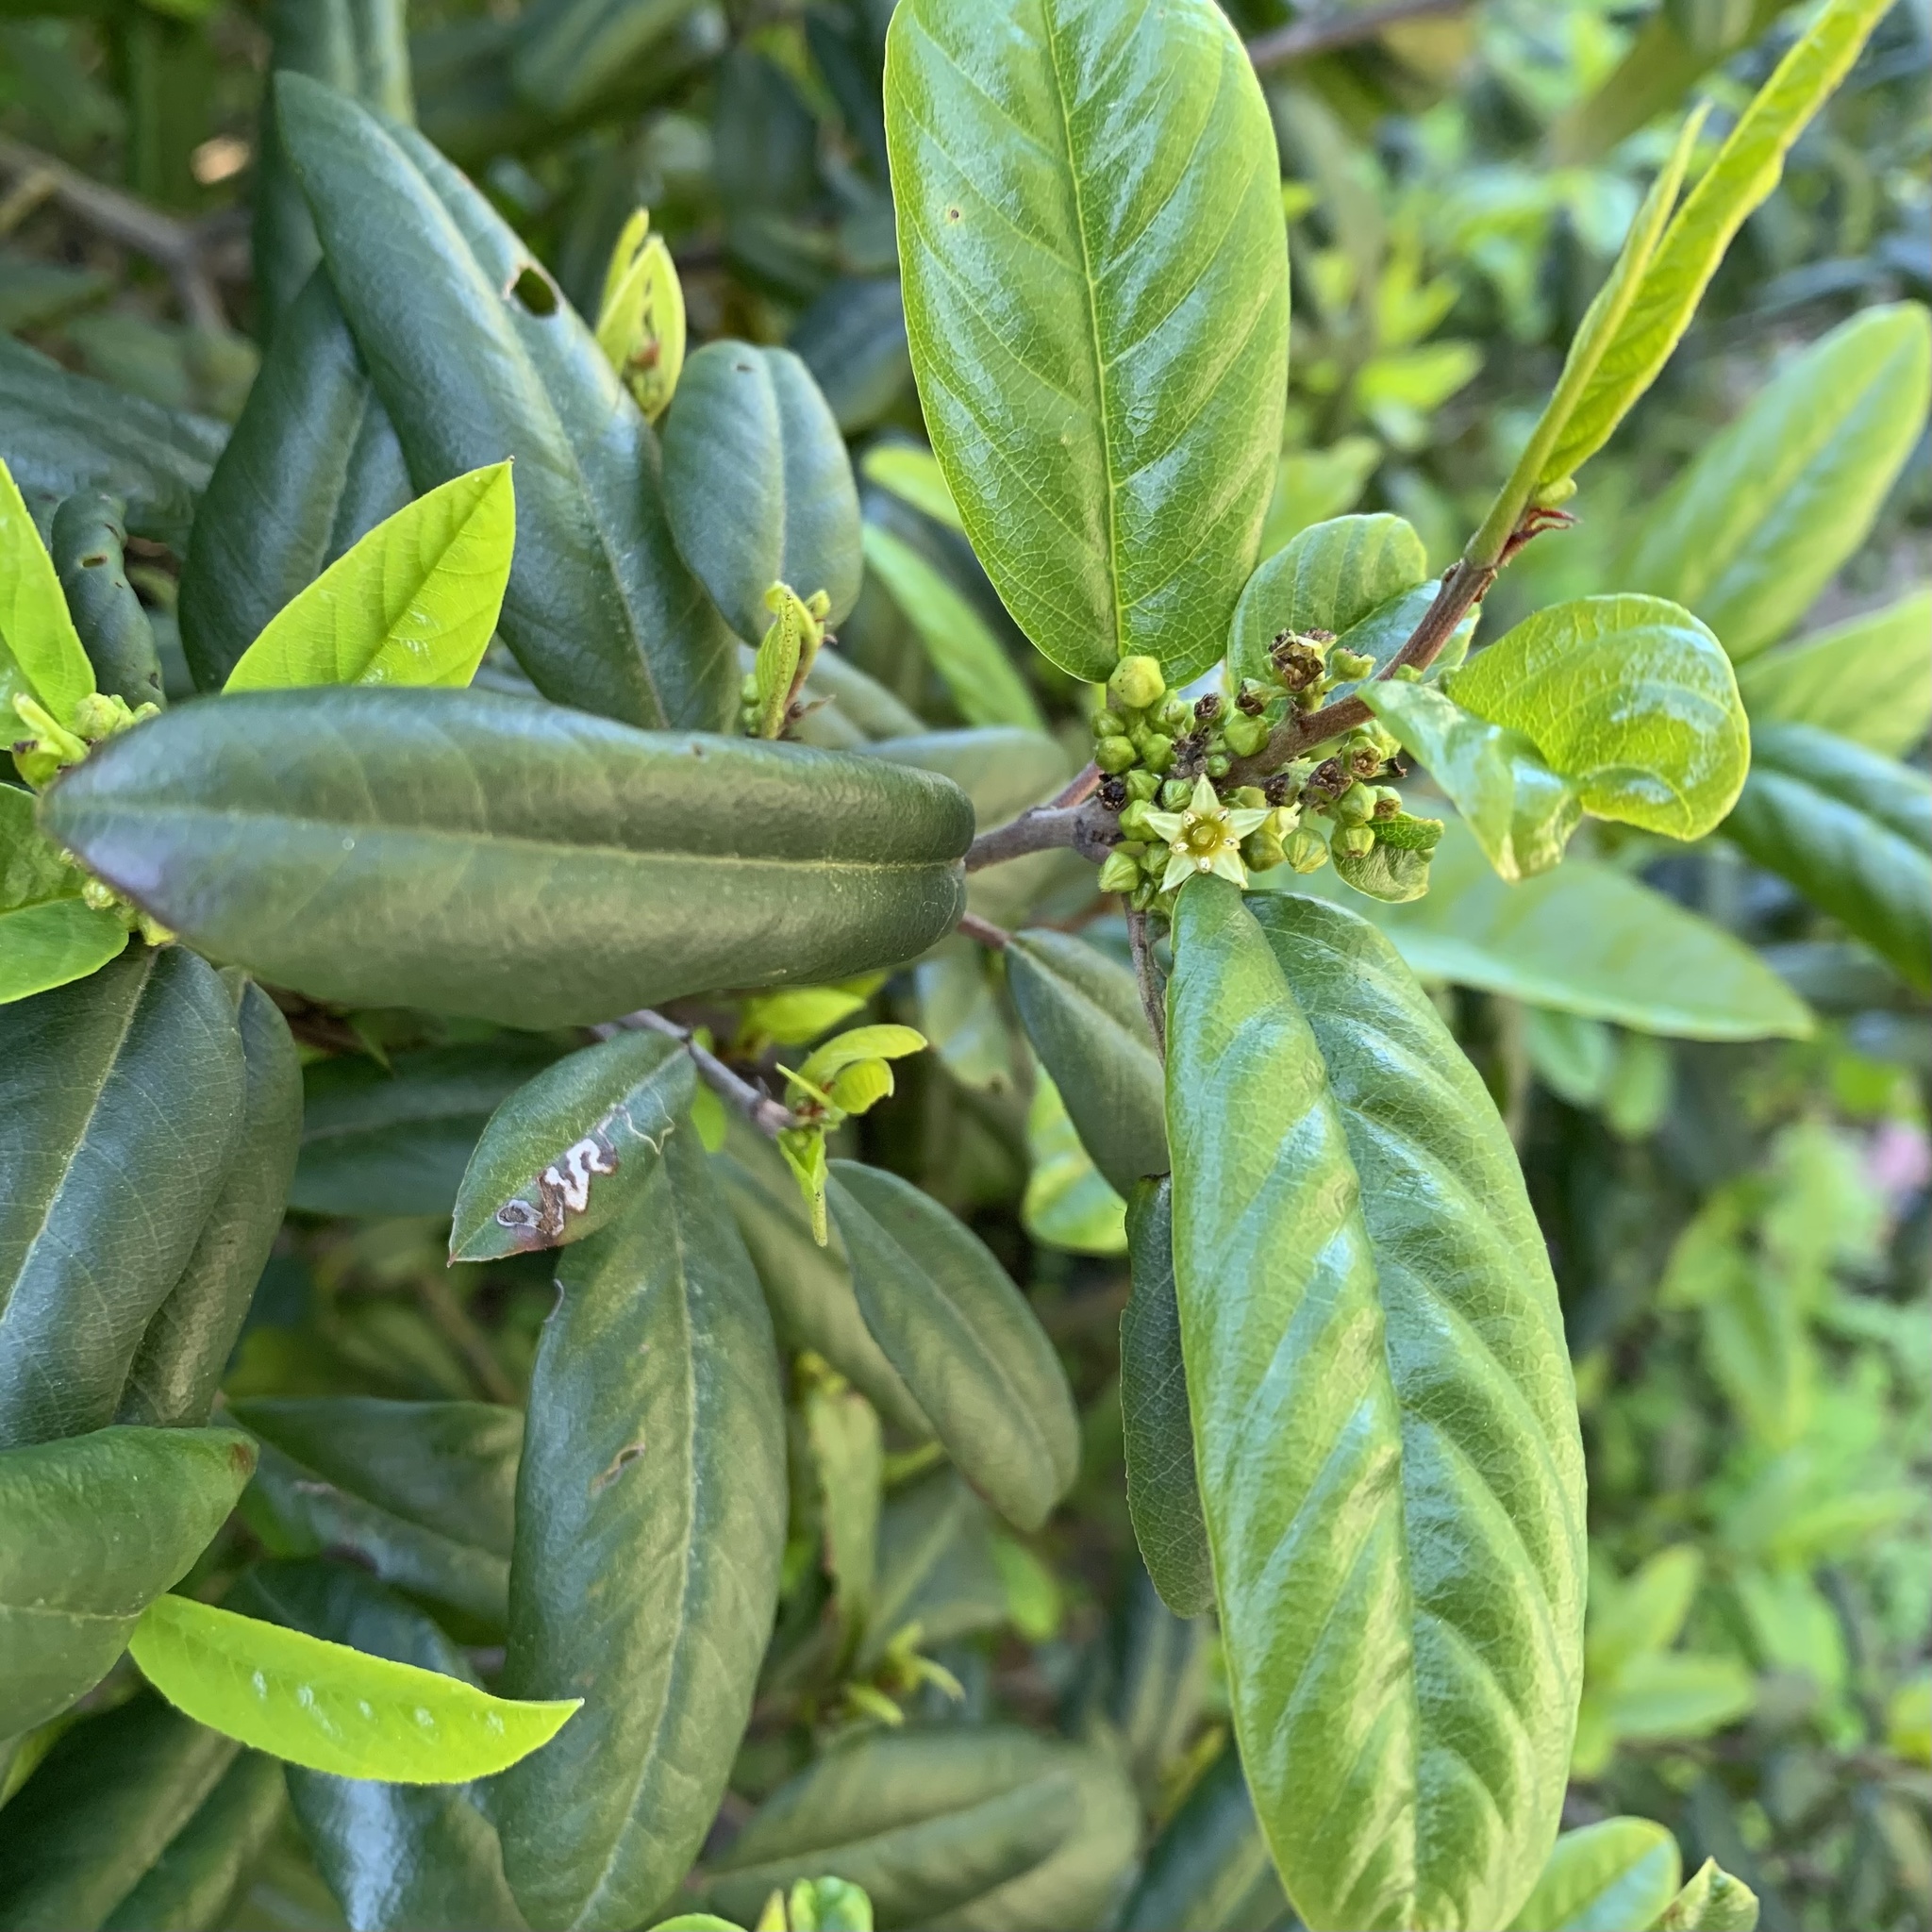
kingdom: Plantae
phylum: Tracheophyta
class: Magnoliopsida
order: Rosales
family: Rhamnaceae
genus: Frangula
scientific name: Frangula californica
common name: California buckthorn
